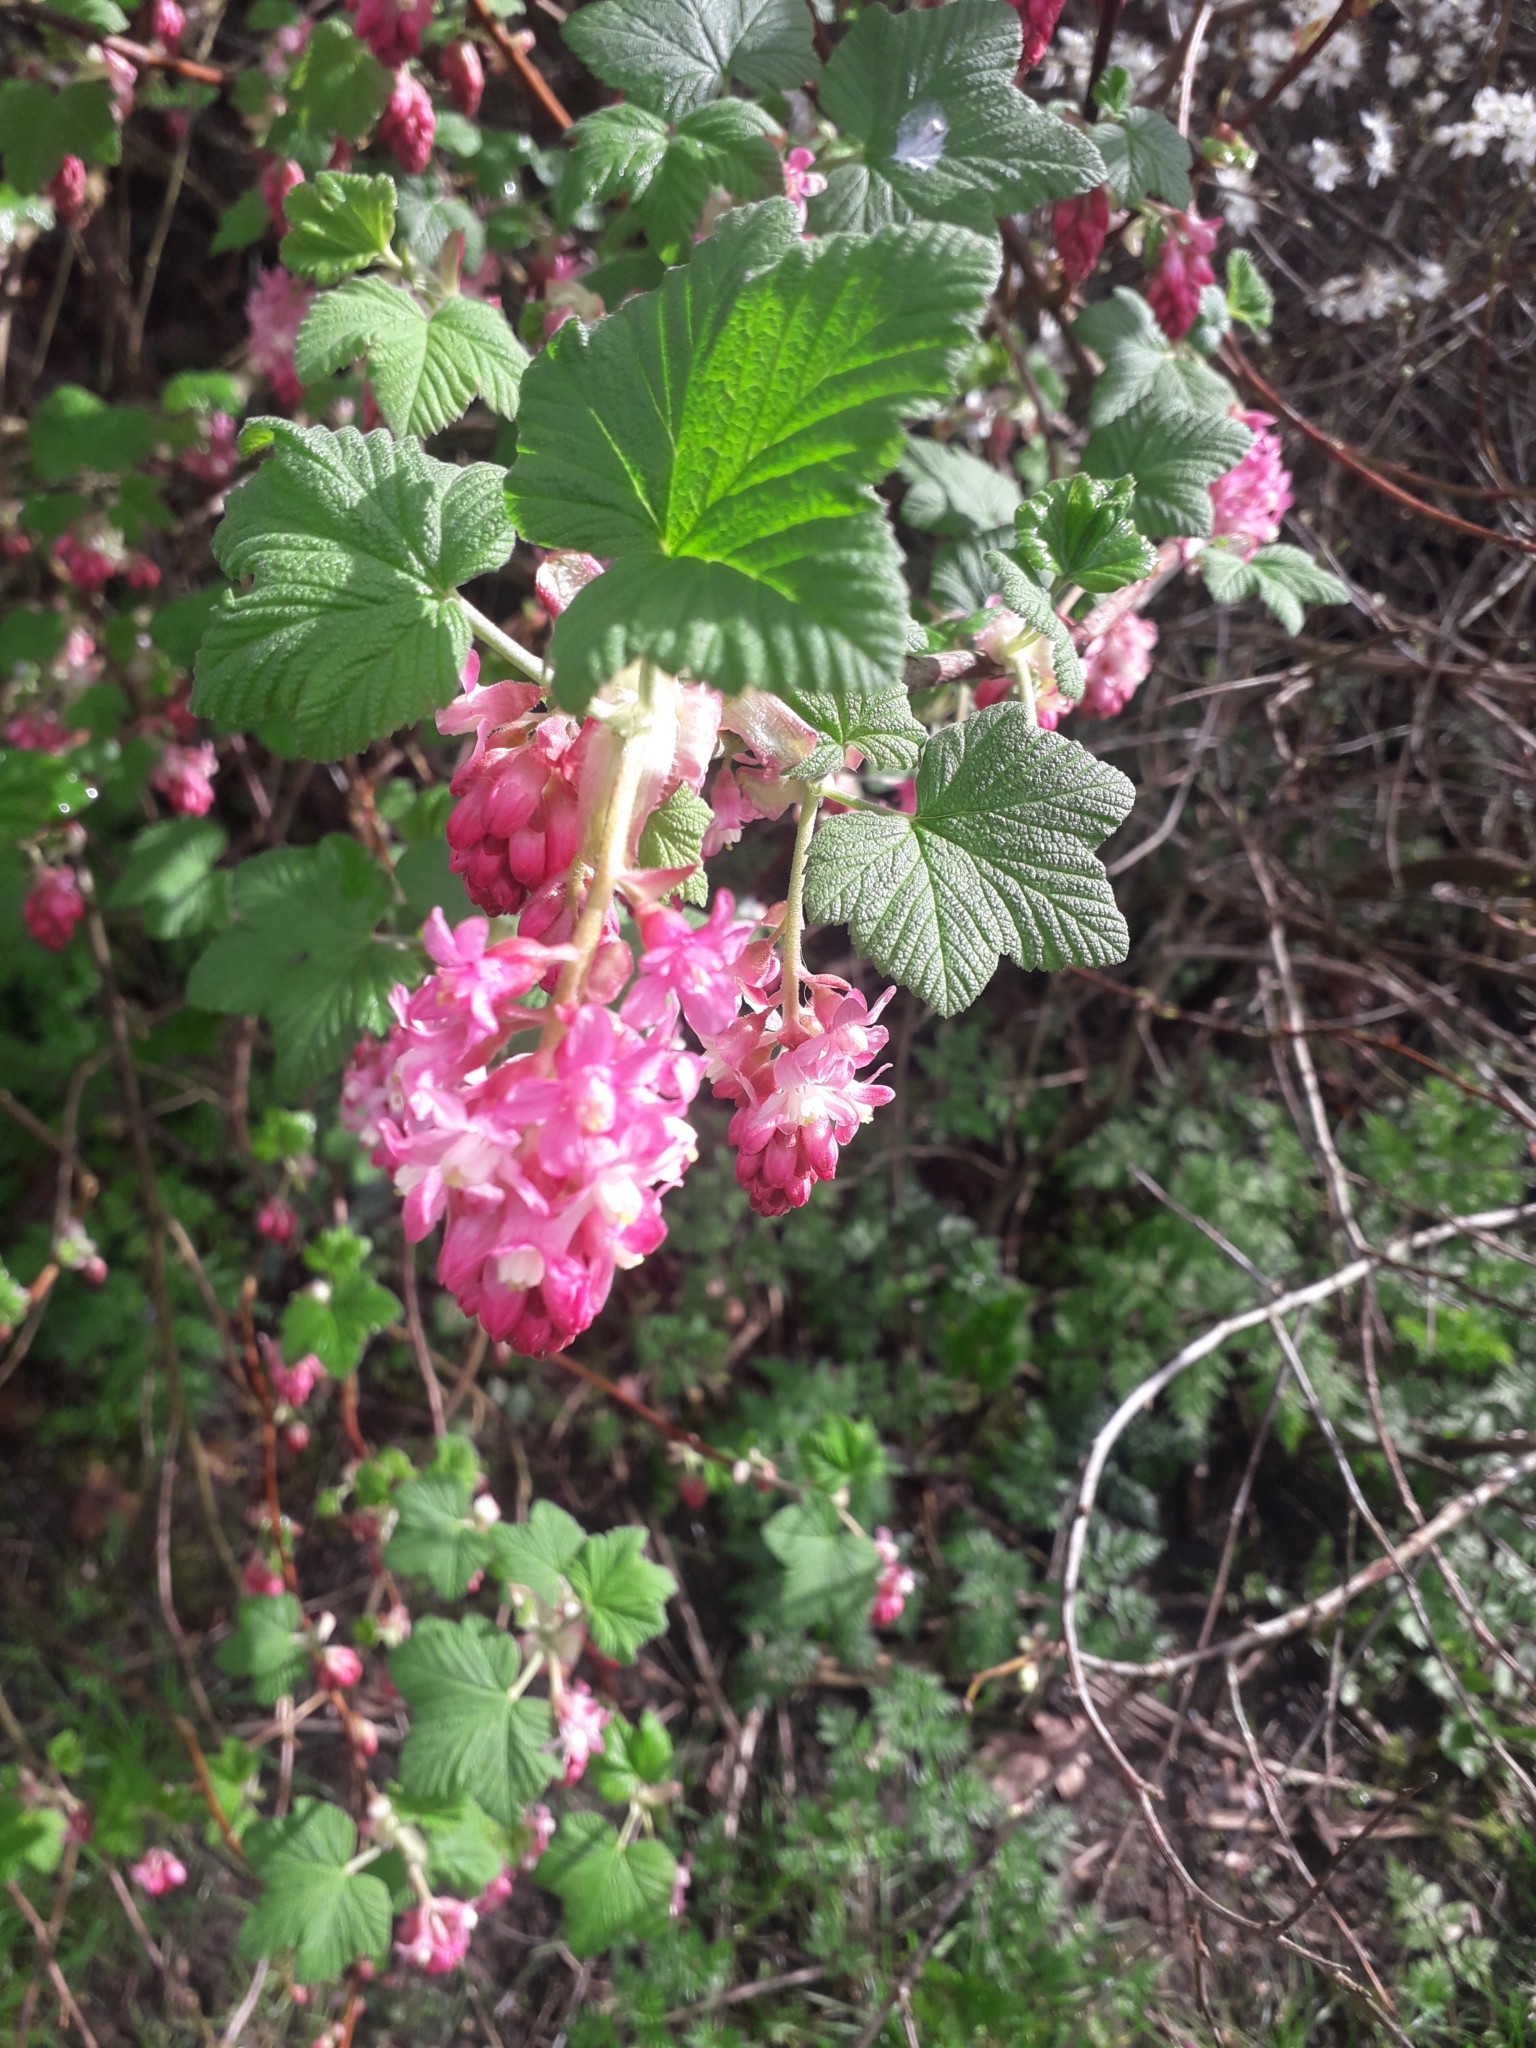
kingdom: Plantae
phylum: Tracheophyta
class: Magnoliopsida
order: Saxifragales
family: Grossulariaceae
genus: Ribes
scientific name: Ribes sanguineum
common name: Flowering currant
